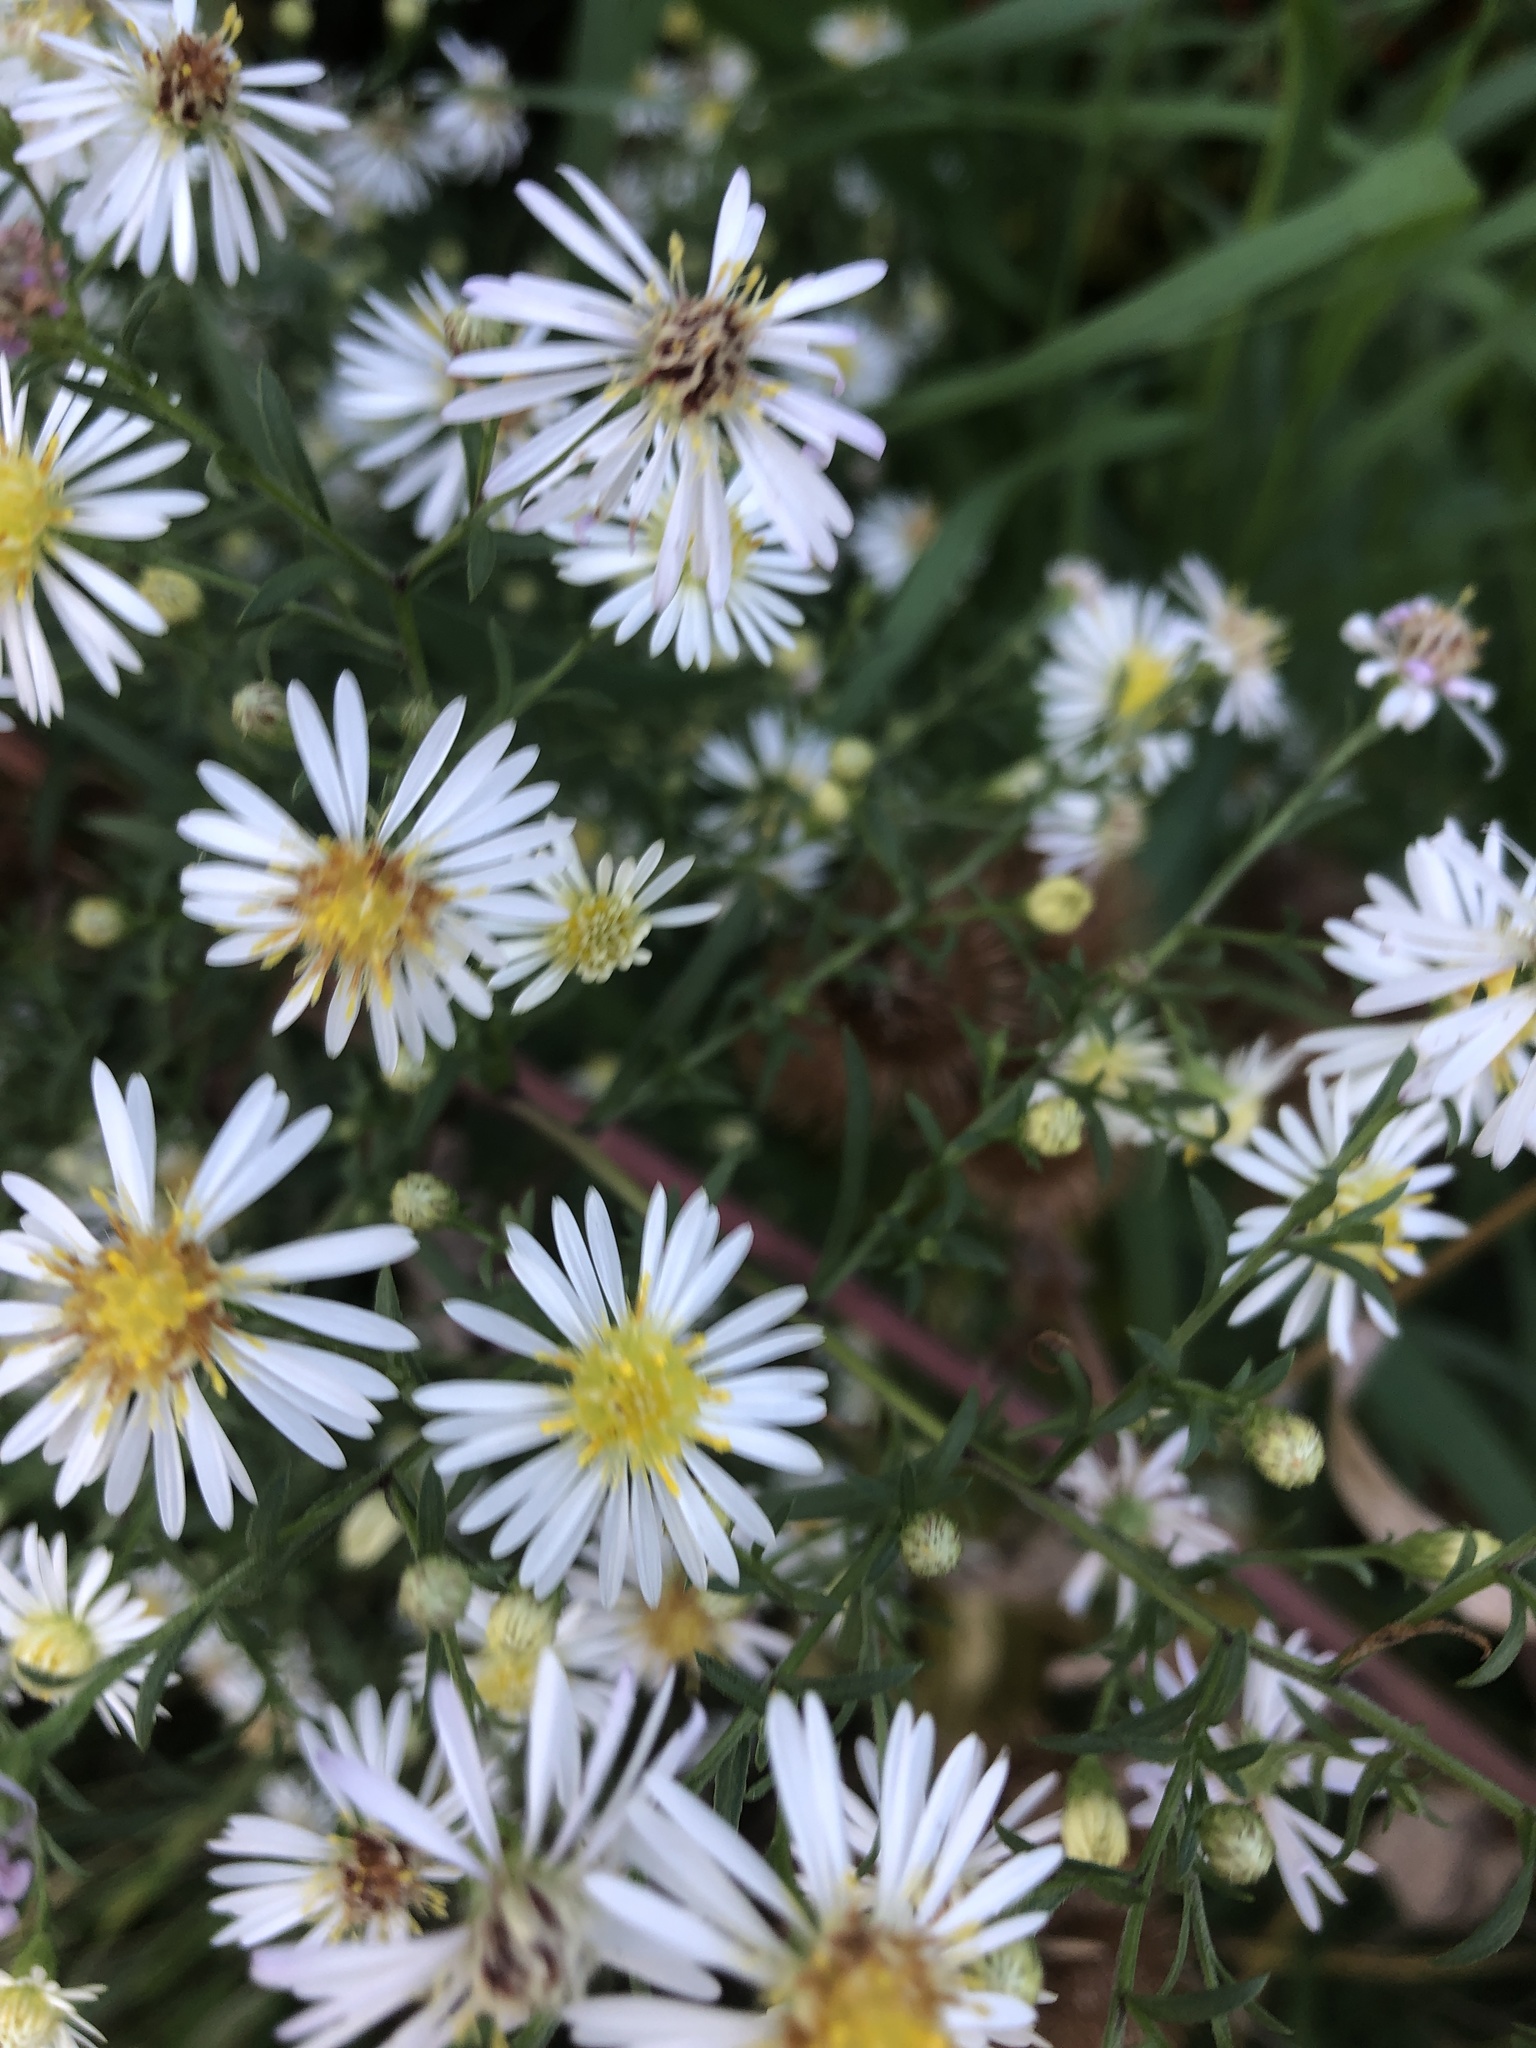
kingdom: Plantae
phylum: Tracheophyta
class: Magnoliopsida
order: Asterales
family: Asteraceae
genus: Symphyotrichum
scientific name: Symphyotrichum lanceolatum
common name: Panicled aster
